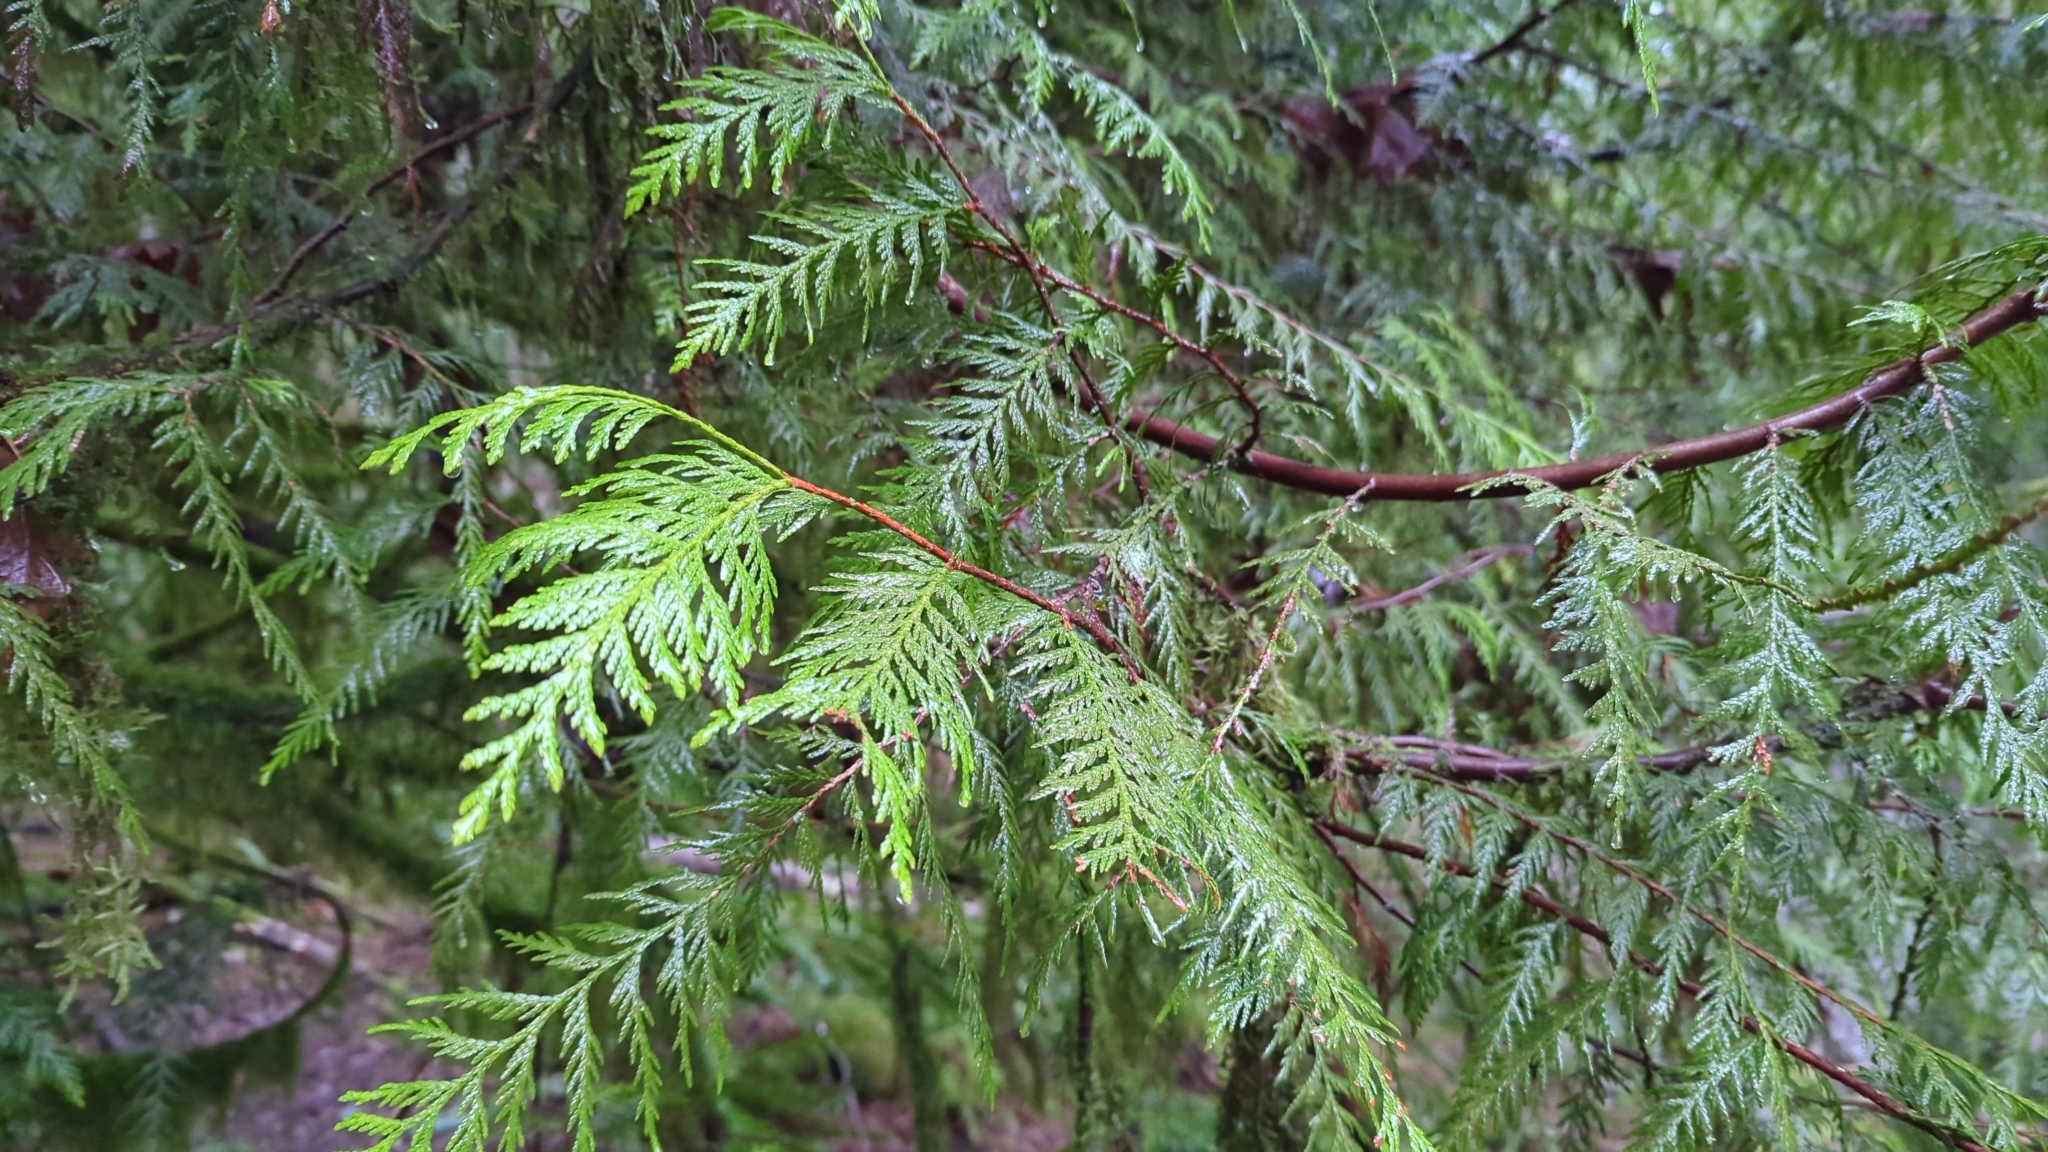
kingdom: Plantae
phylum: Tracheophyta
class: Pinopsida
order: Pinales
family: Cupressaceae
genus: Thuja
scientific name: Thuja plicata
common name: Western red-cedar
